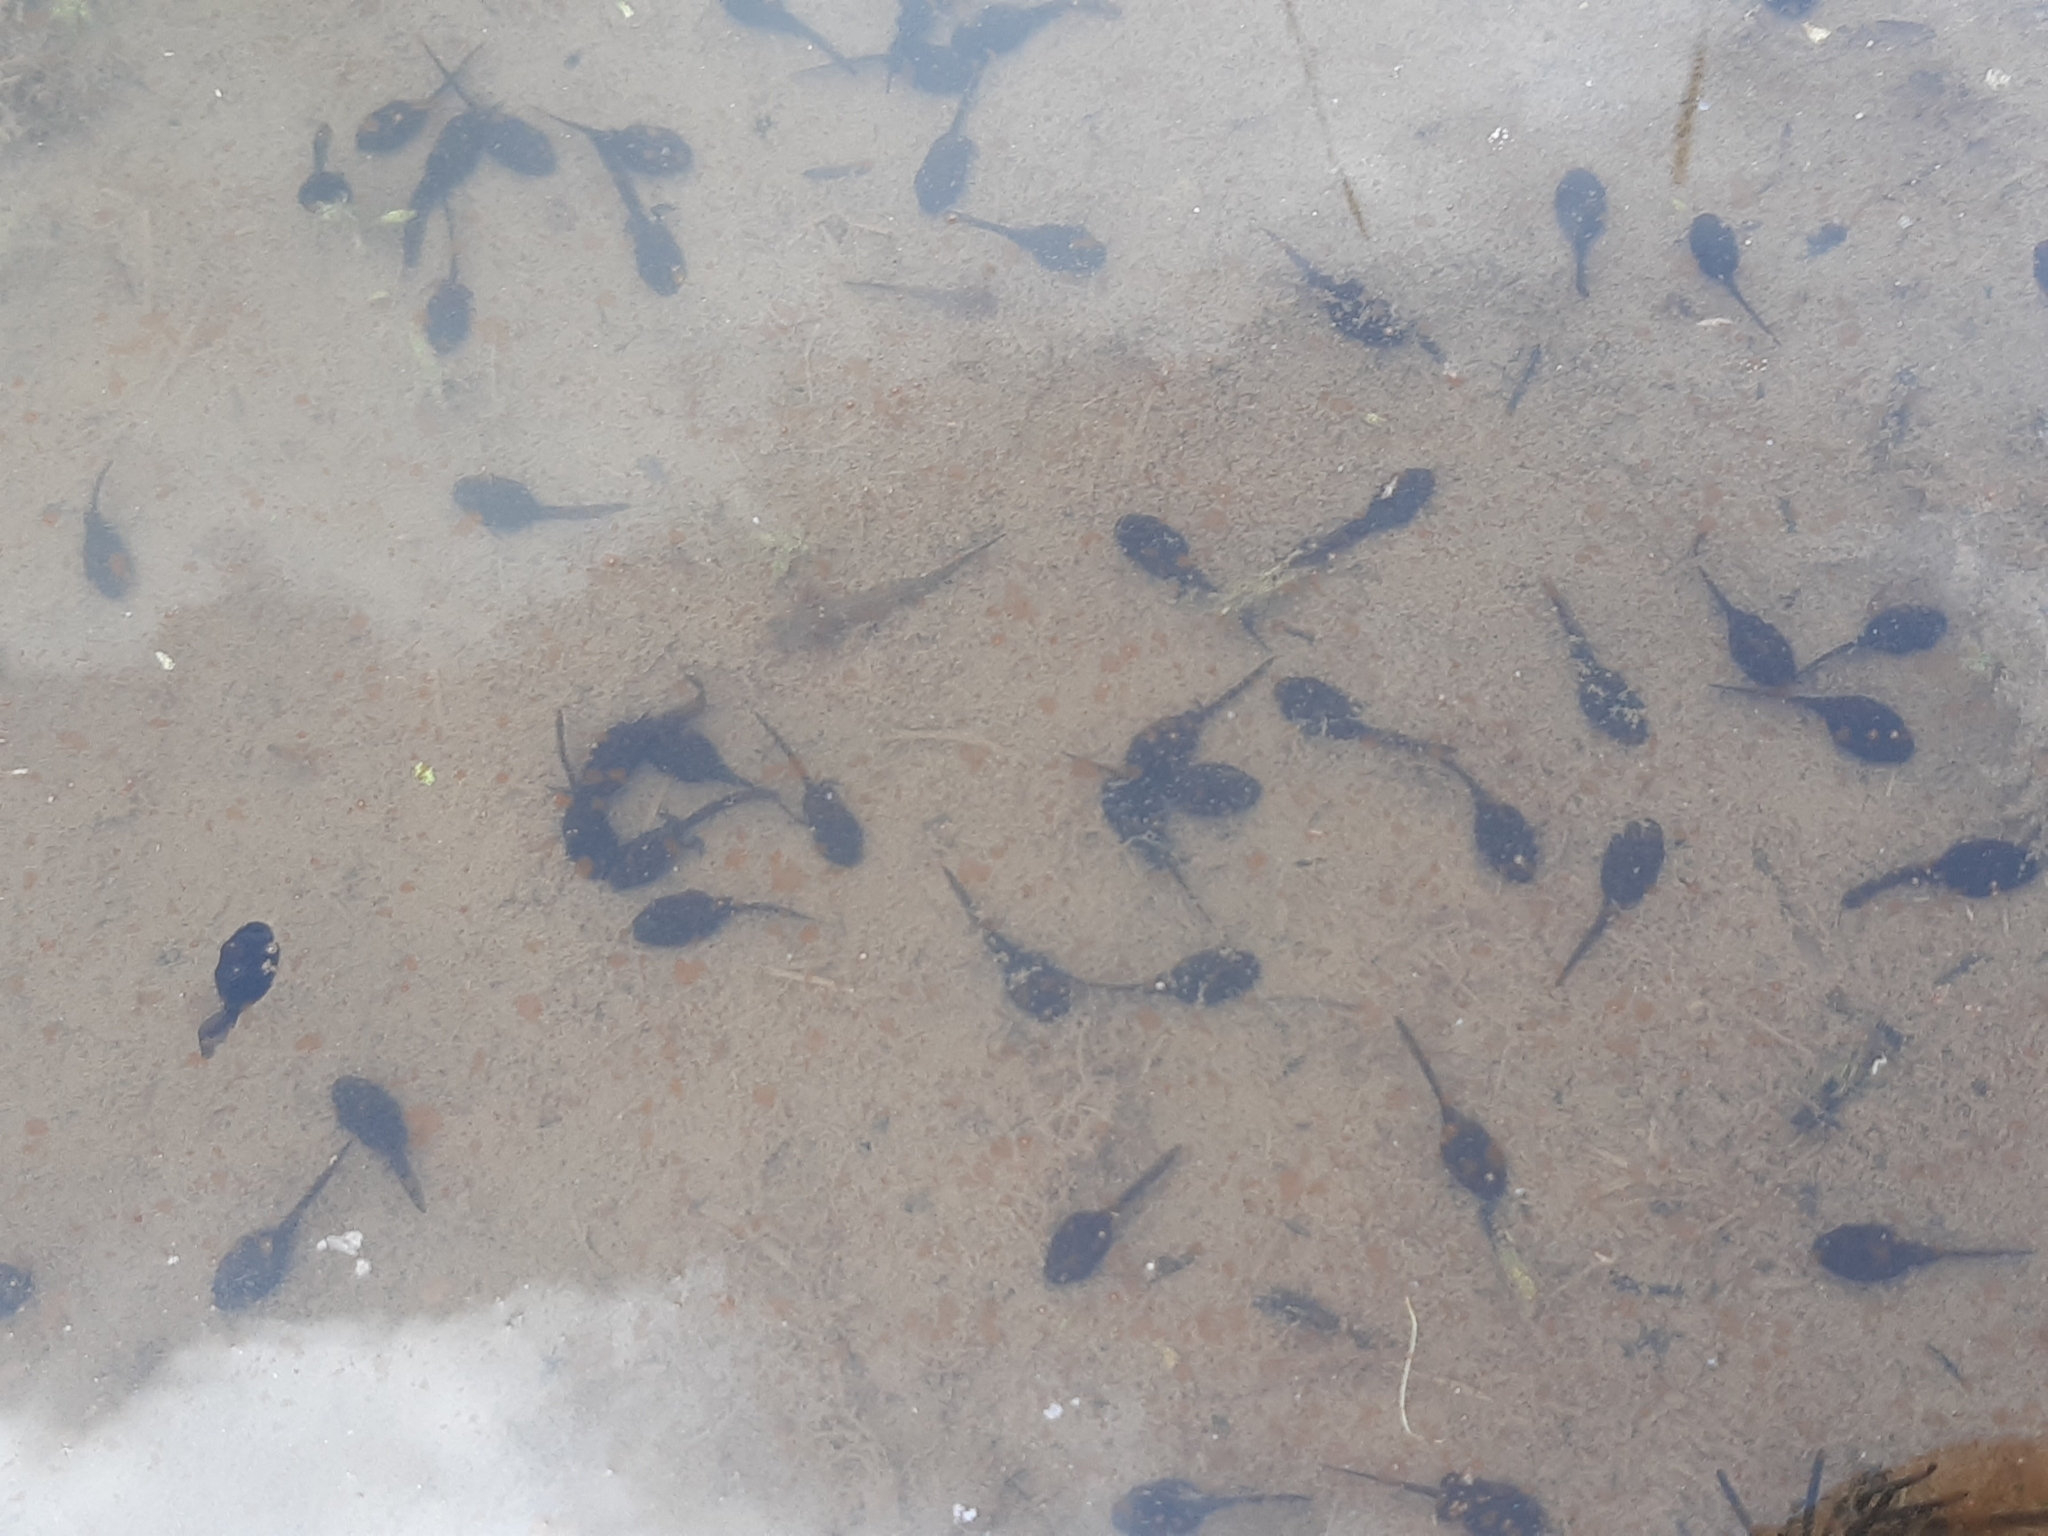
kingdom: Animalia
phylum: Chordata
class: Amphibia
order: Anura
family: Bufonidae
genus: Bufo
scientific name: Bufo bufo
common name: Common toad
